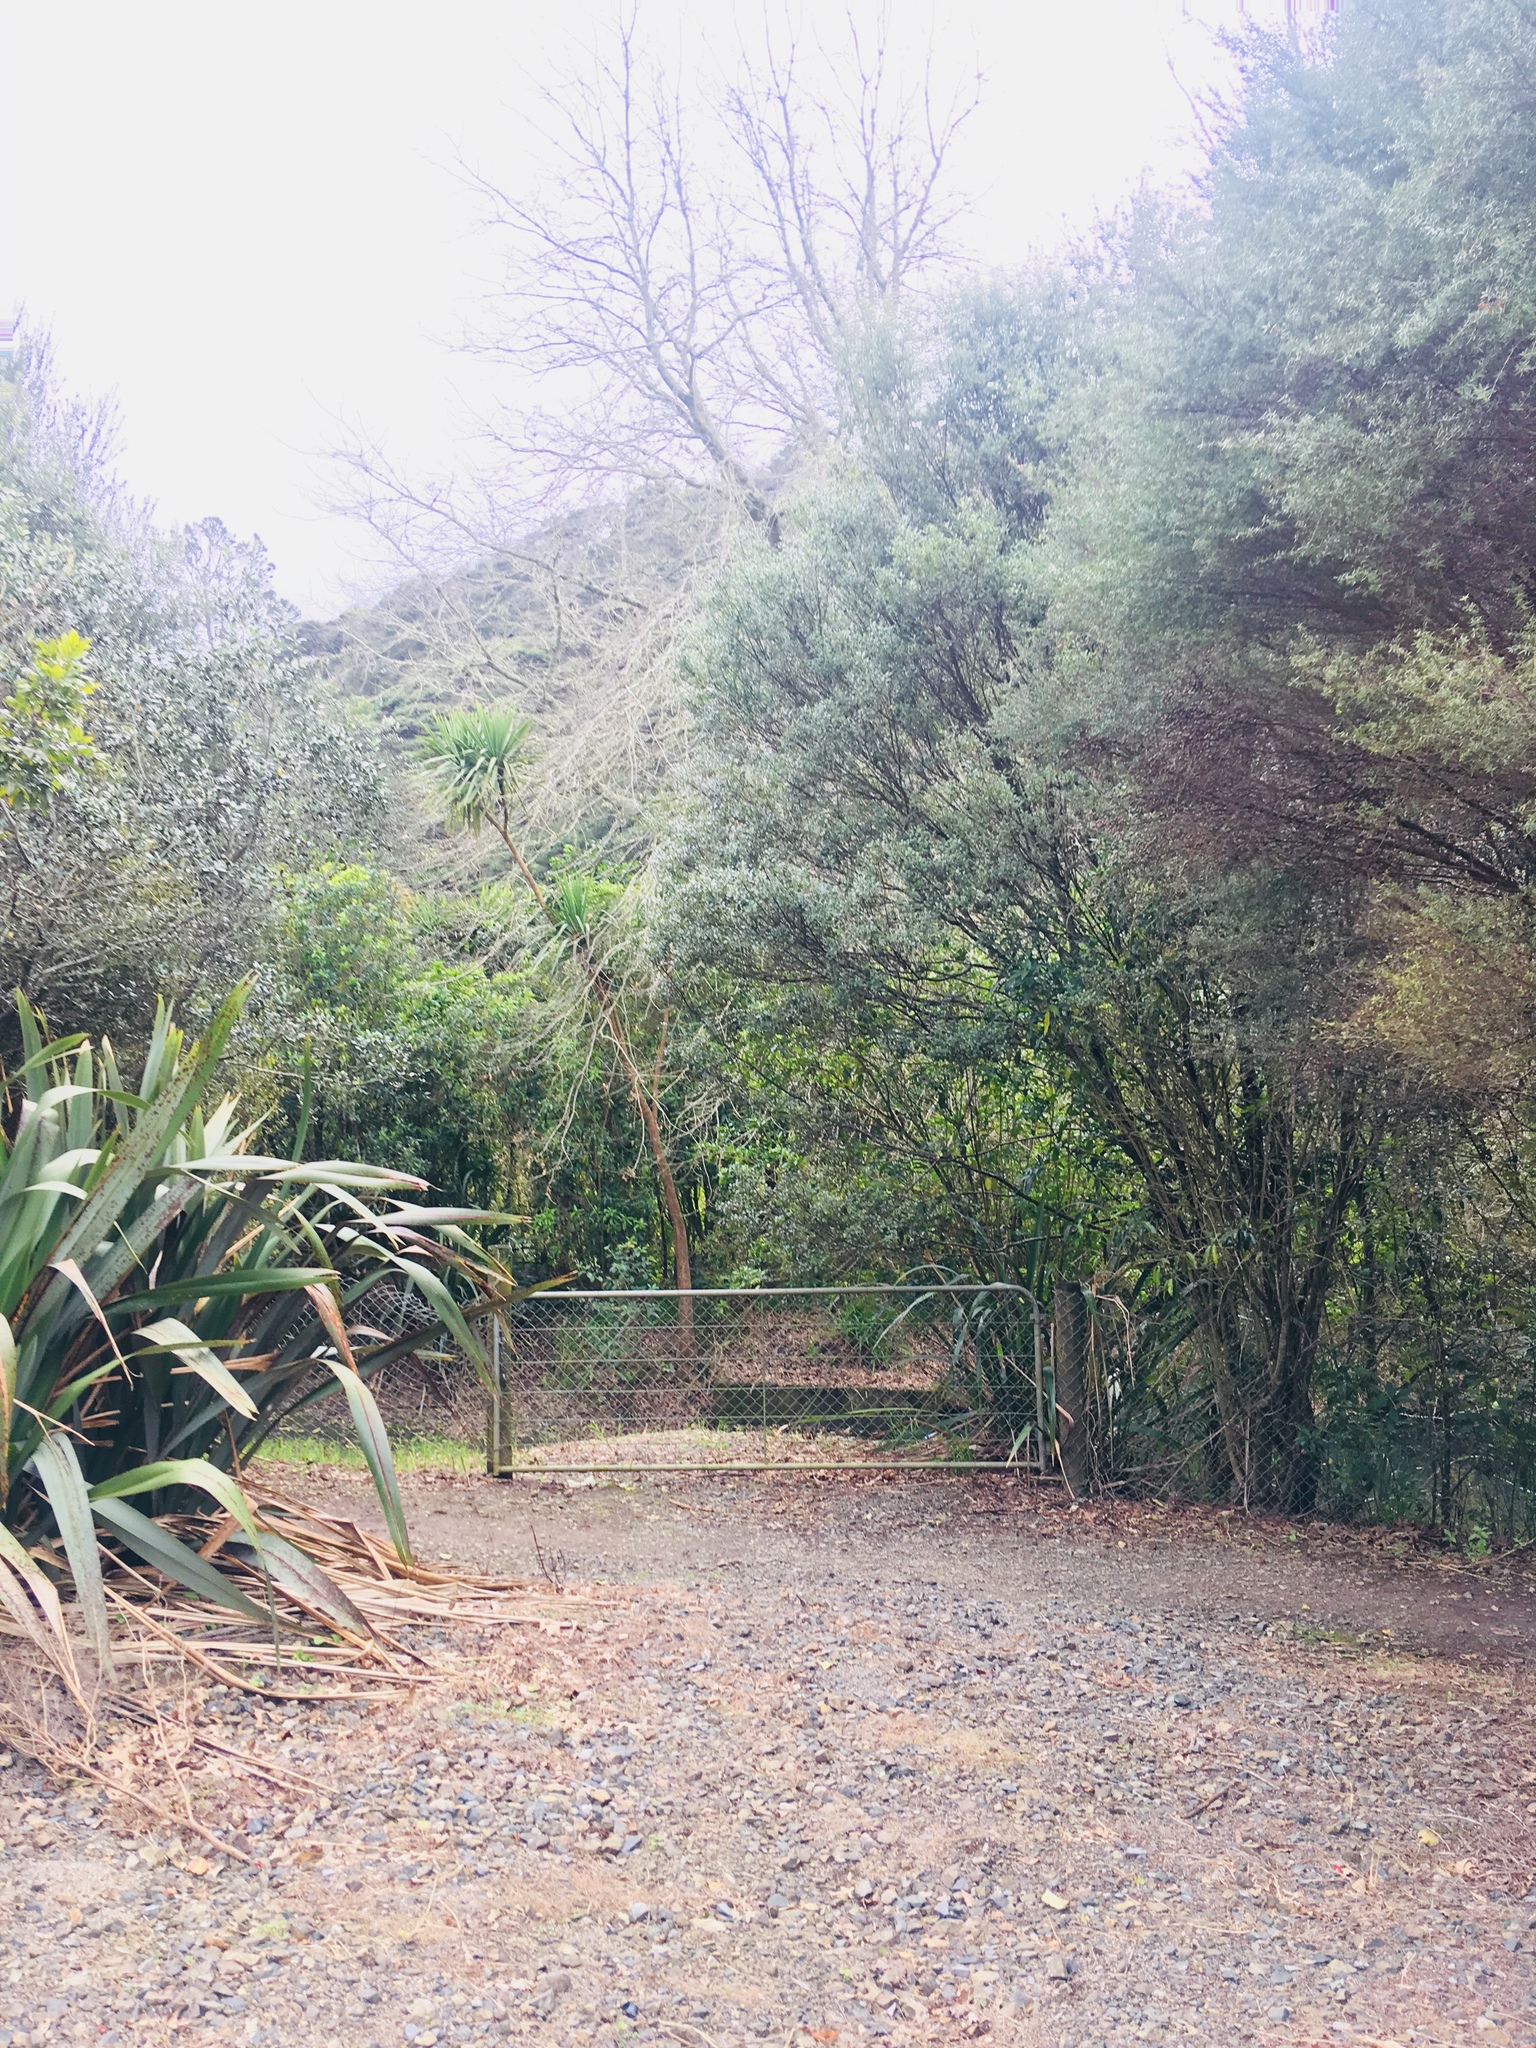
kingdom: Plantae
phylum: Tracheophyta
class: Liliopsida
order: Asparagales
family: Asphodelaceae
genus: Phormium
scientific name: Phormium tenax
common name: New zealand flax
